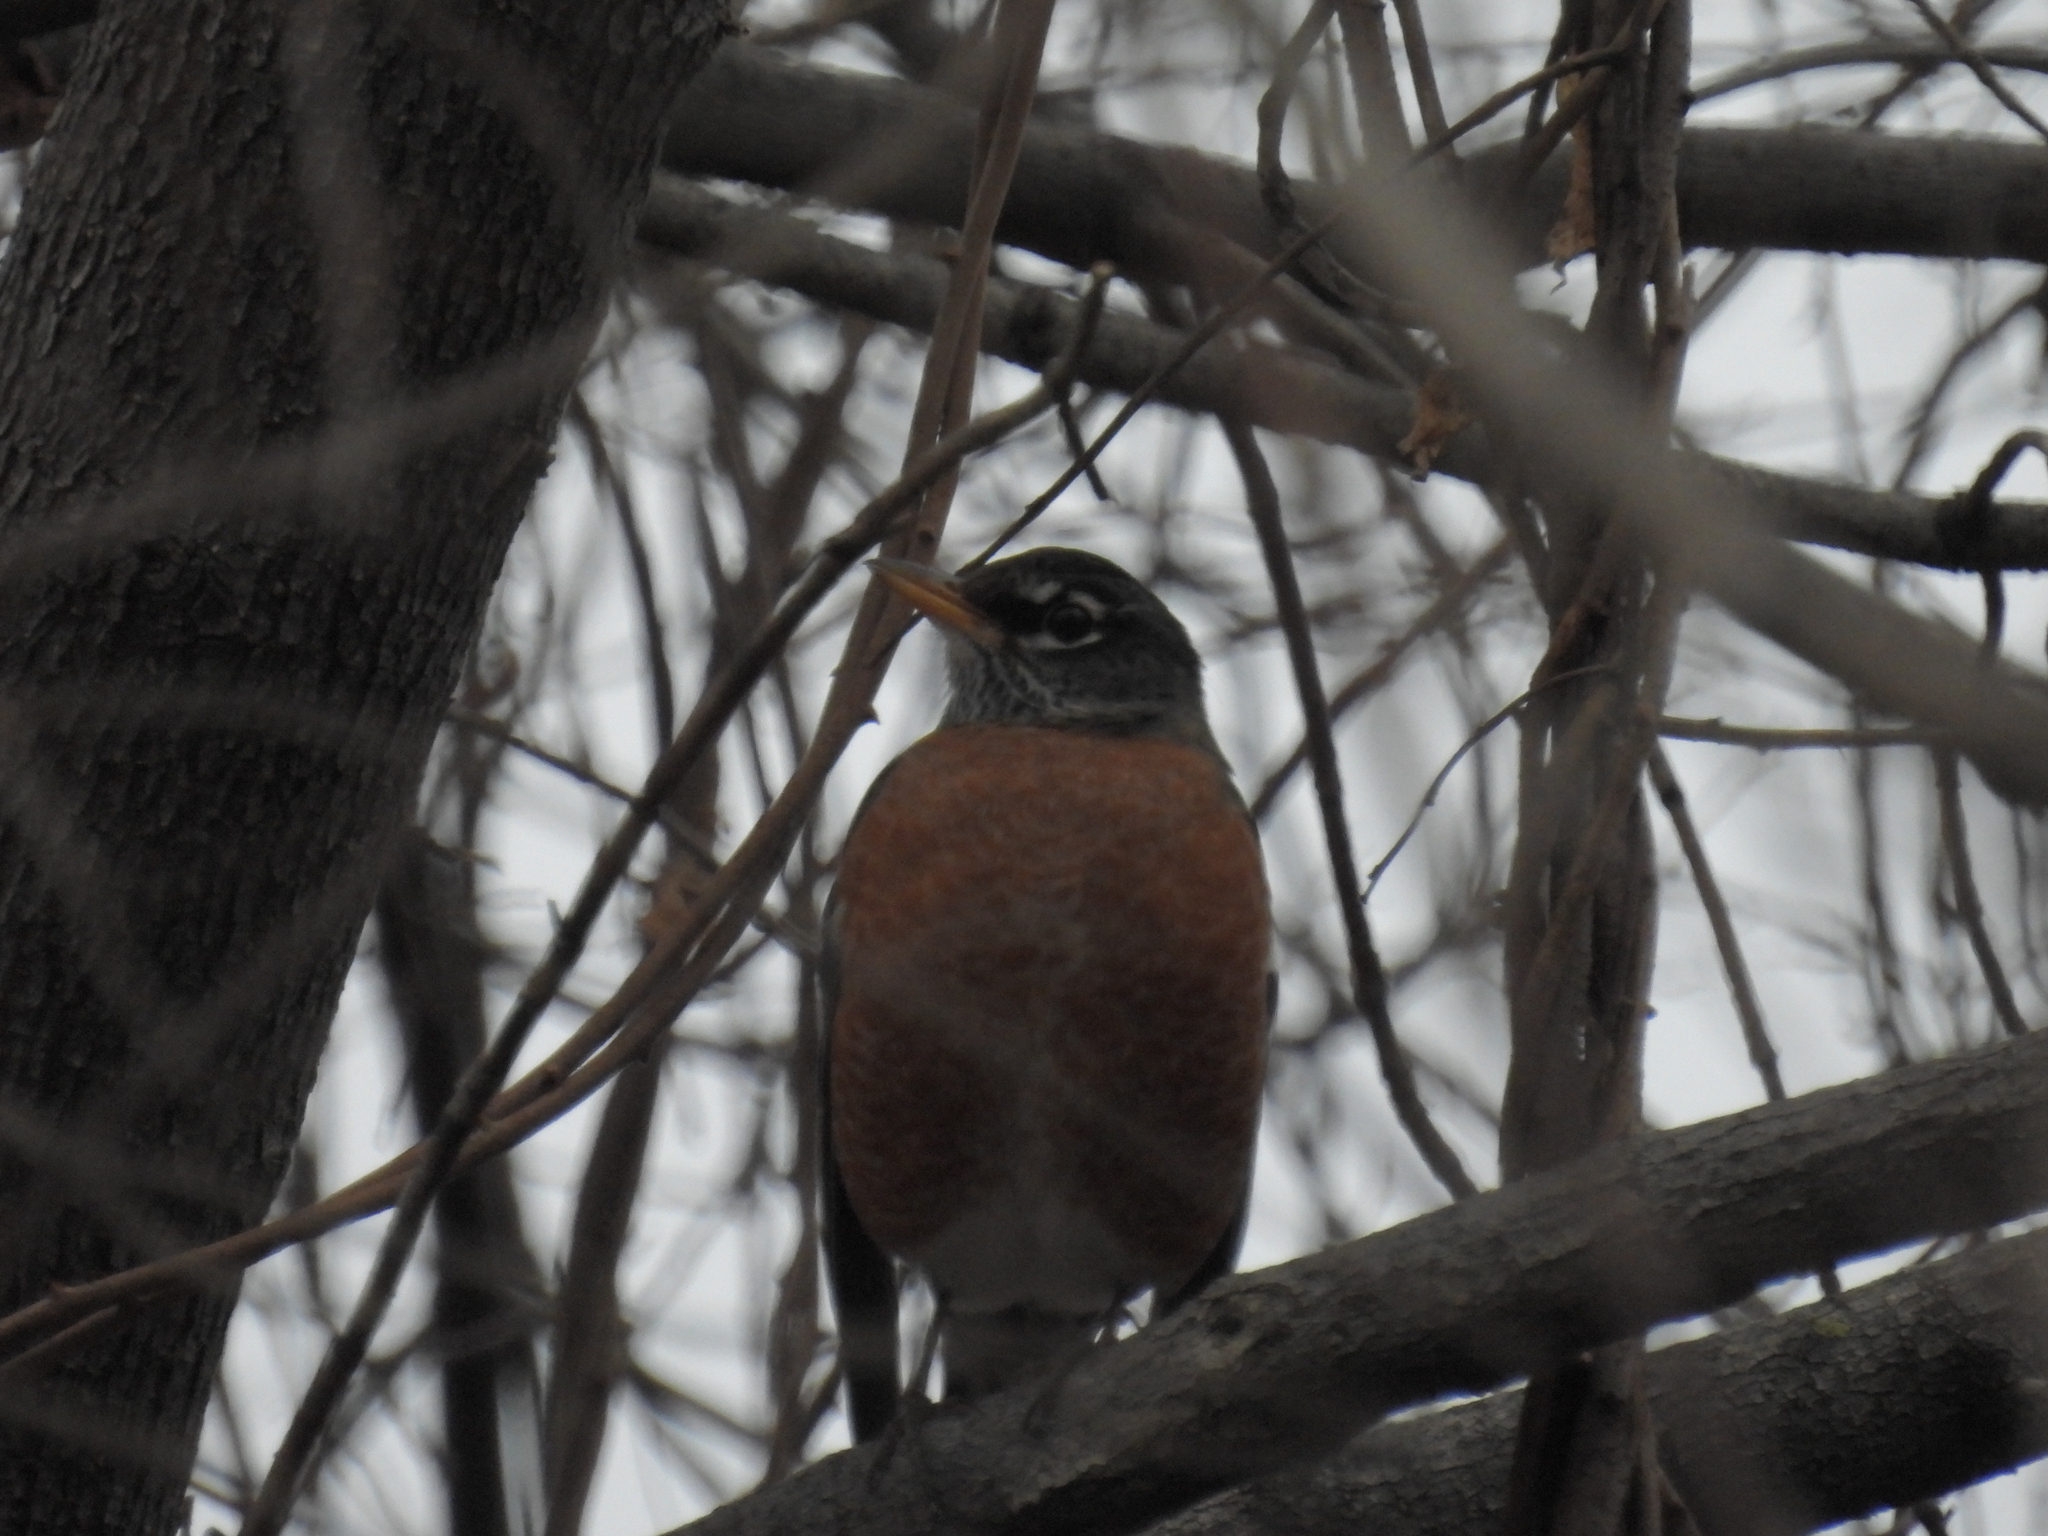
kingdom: Animalia
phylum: Chordata
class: Aves
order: Passeriformes
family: Turdidae
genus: Turdus
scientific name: Turdus migratorius
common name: American robin
